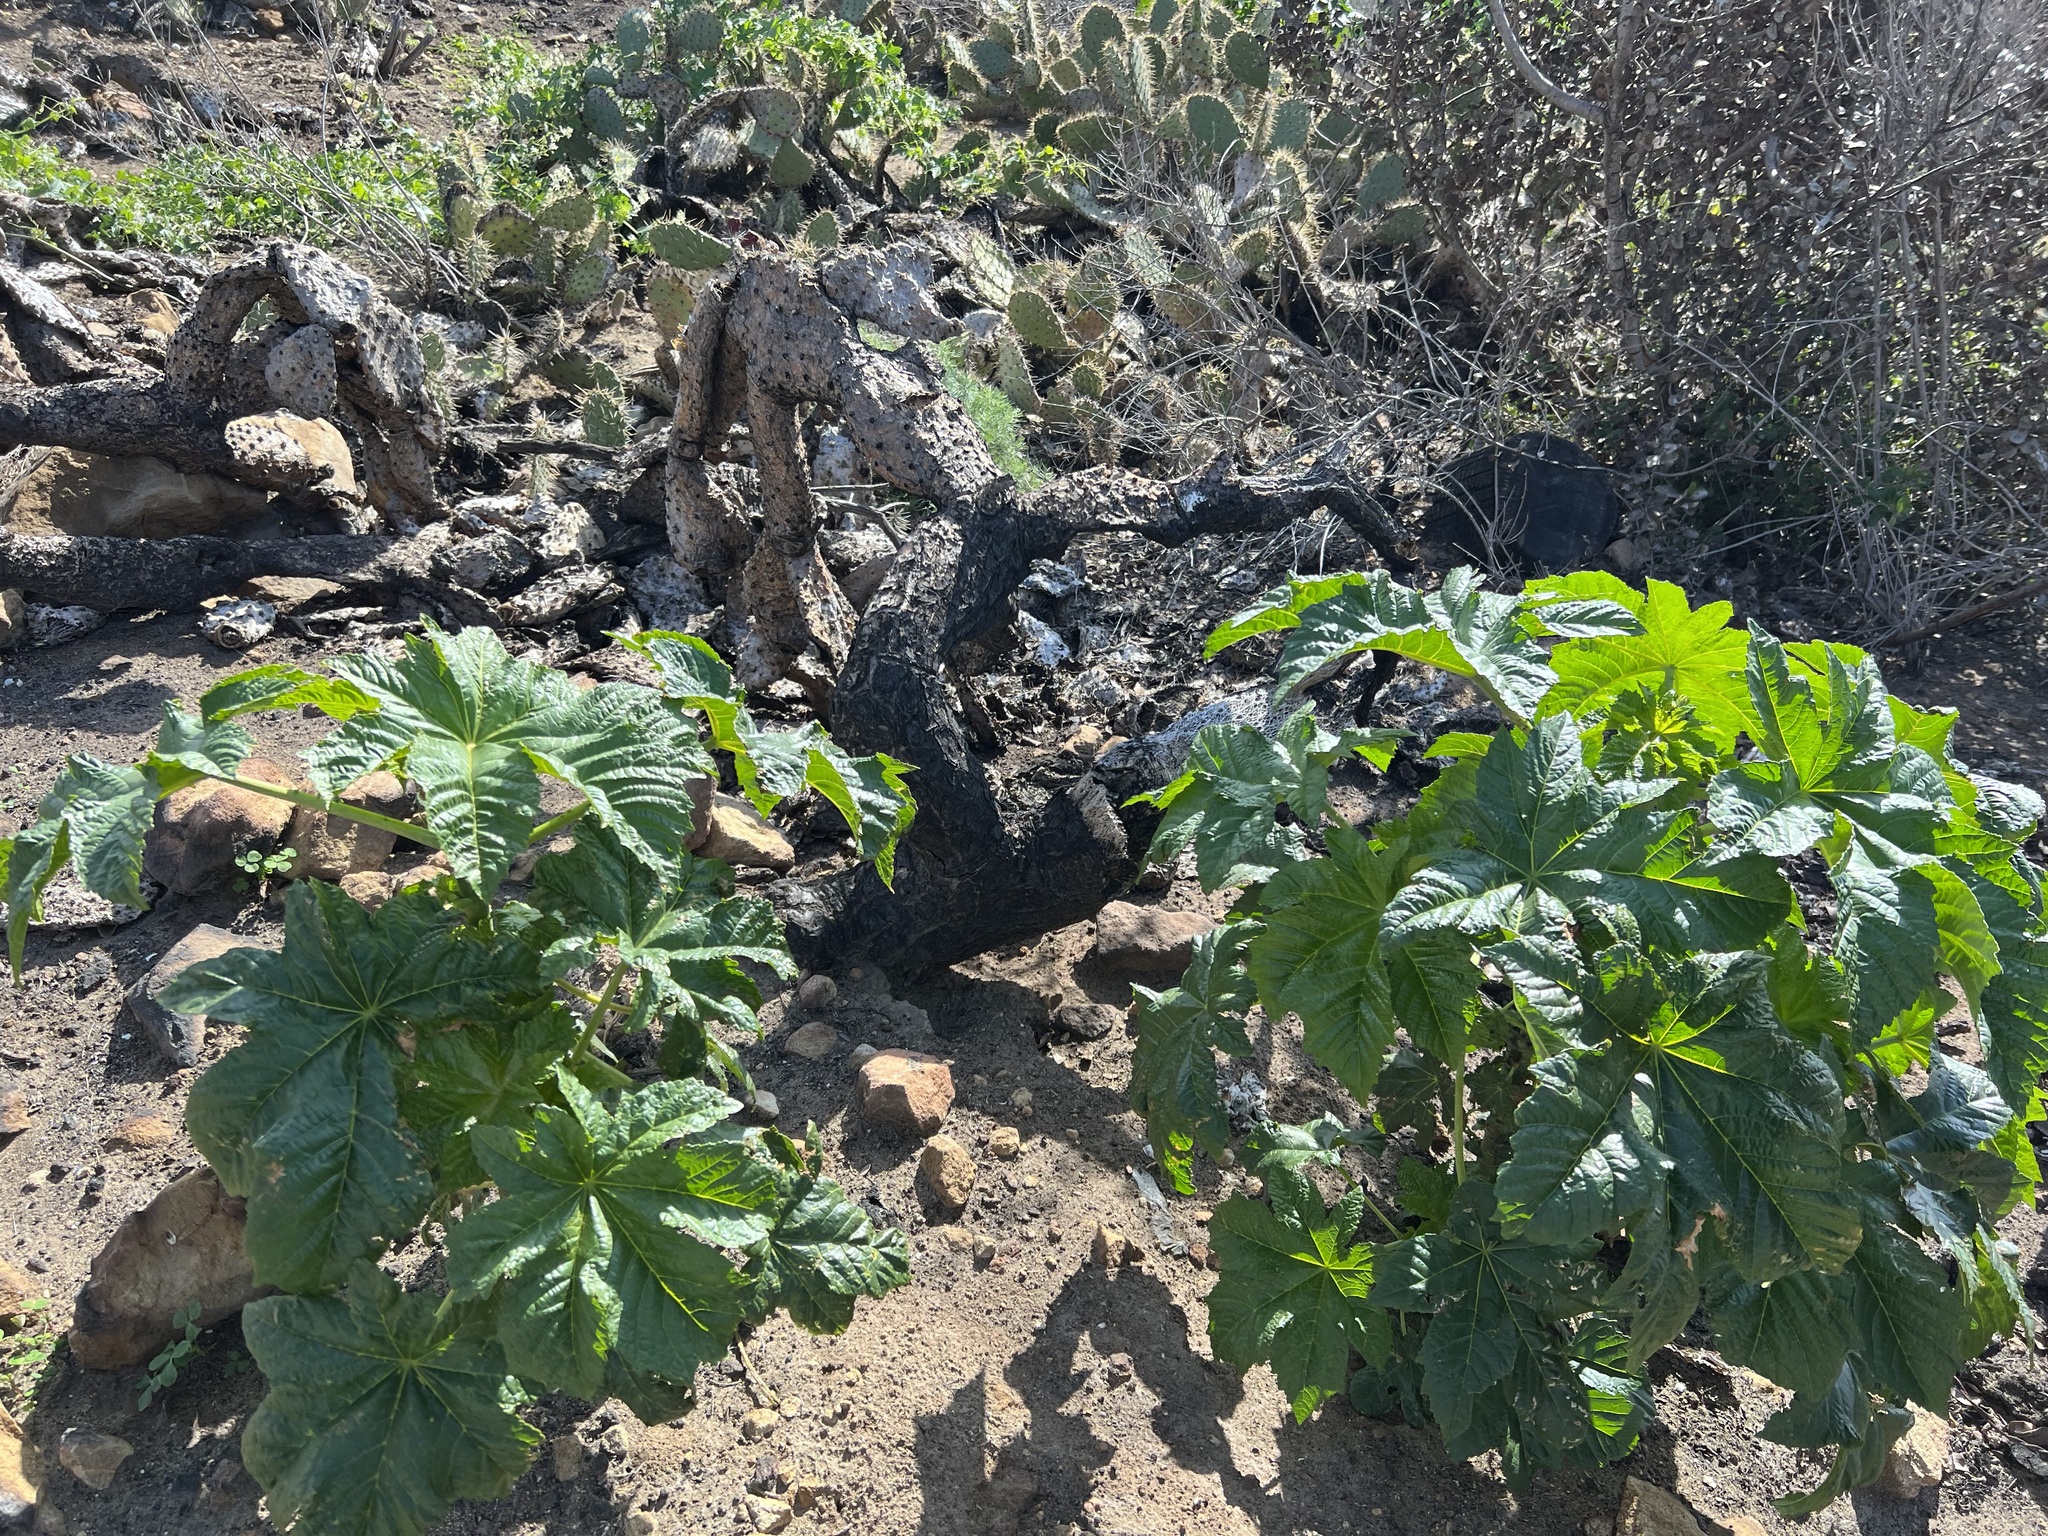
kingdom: Plantae
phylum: Tracheophyta
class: Magnoliopsida
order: Malpighiales
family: Euphorbiaceae
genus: Ricinus
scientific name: Ricinus communis
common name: Castor-oil-plant
